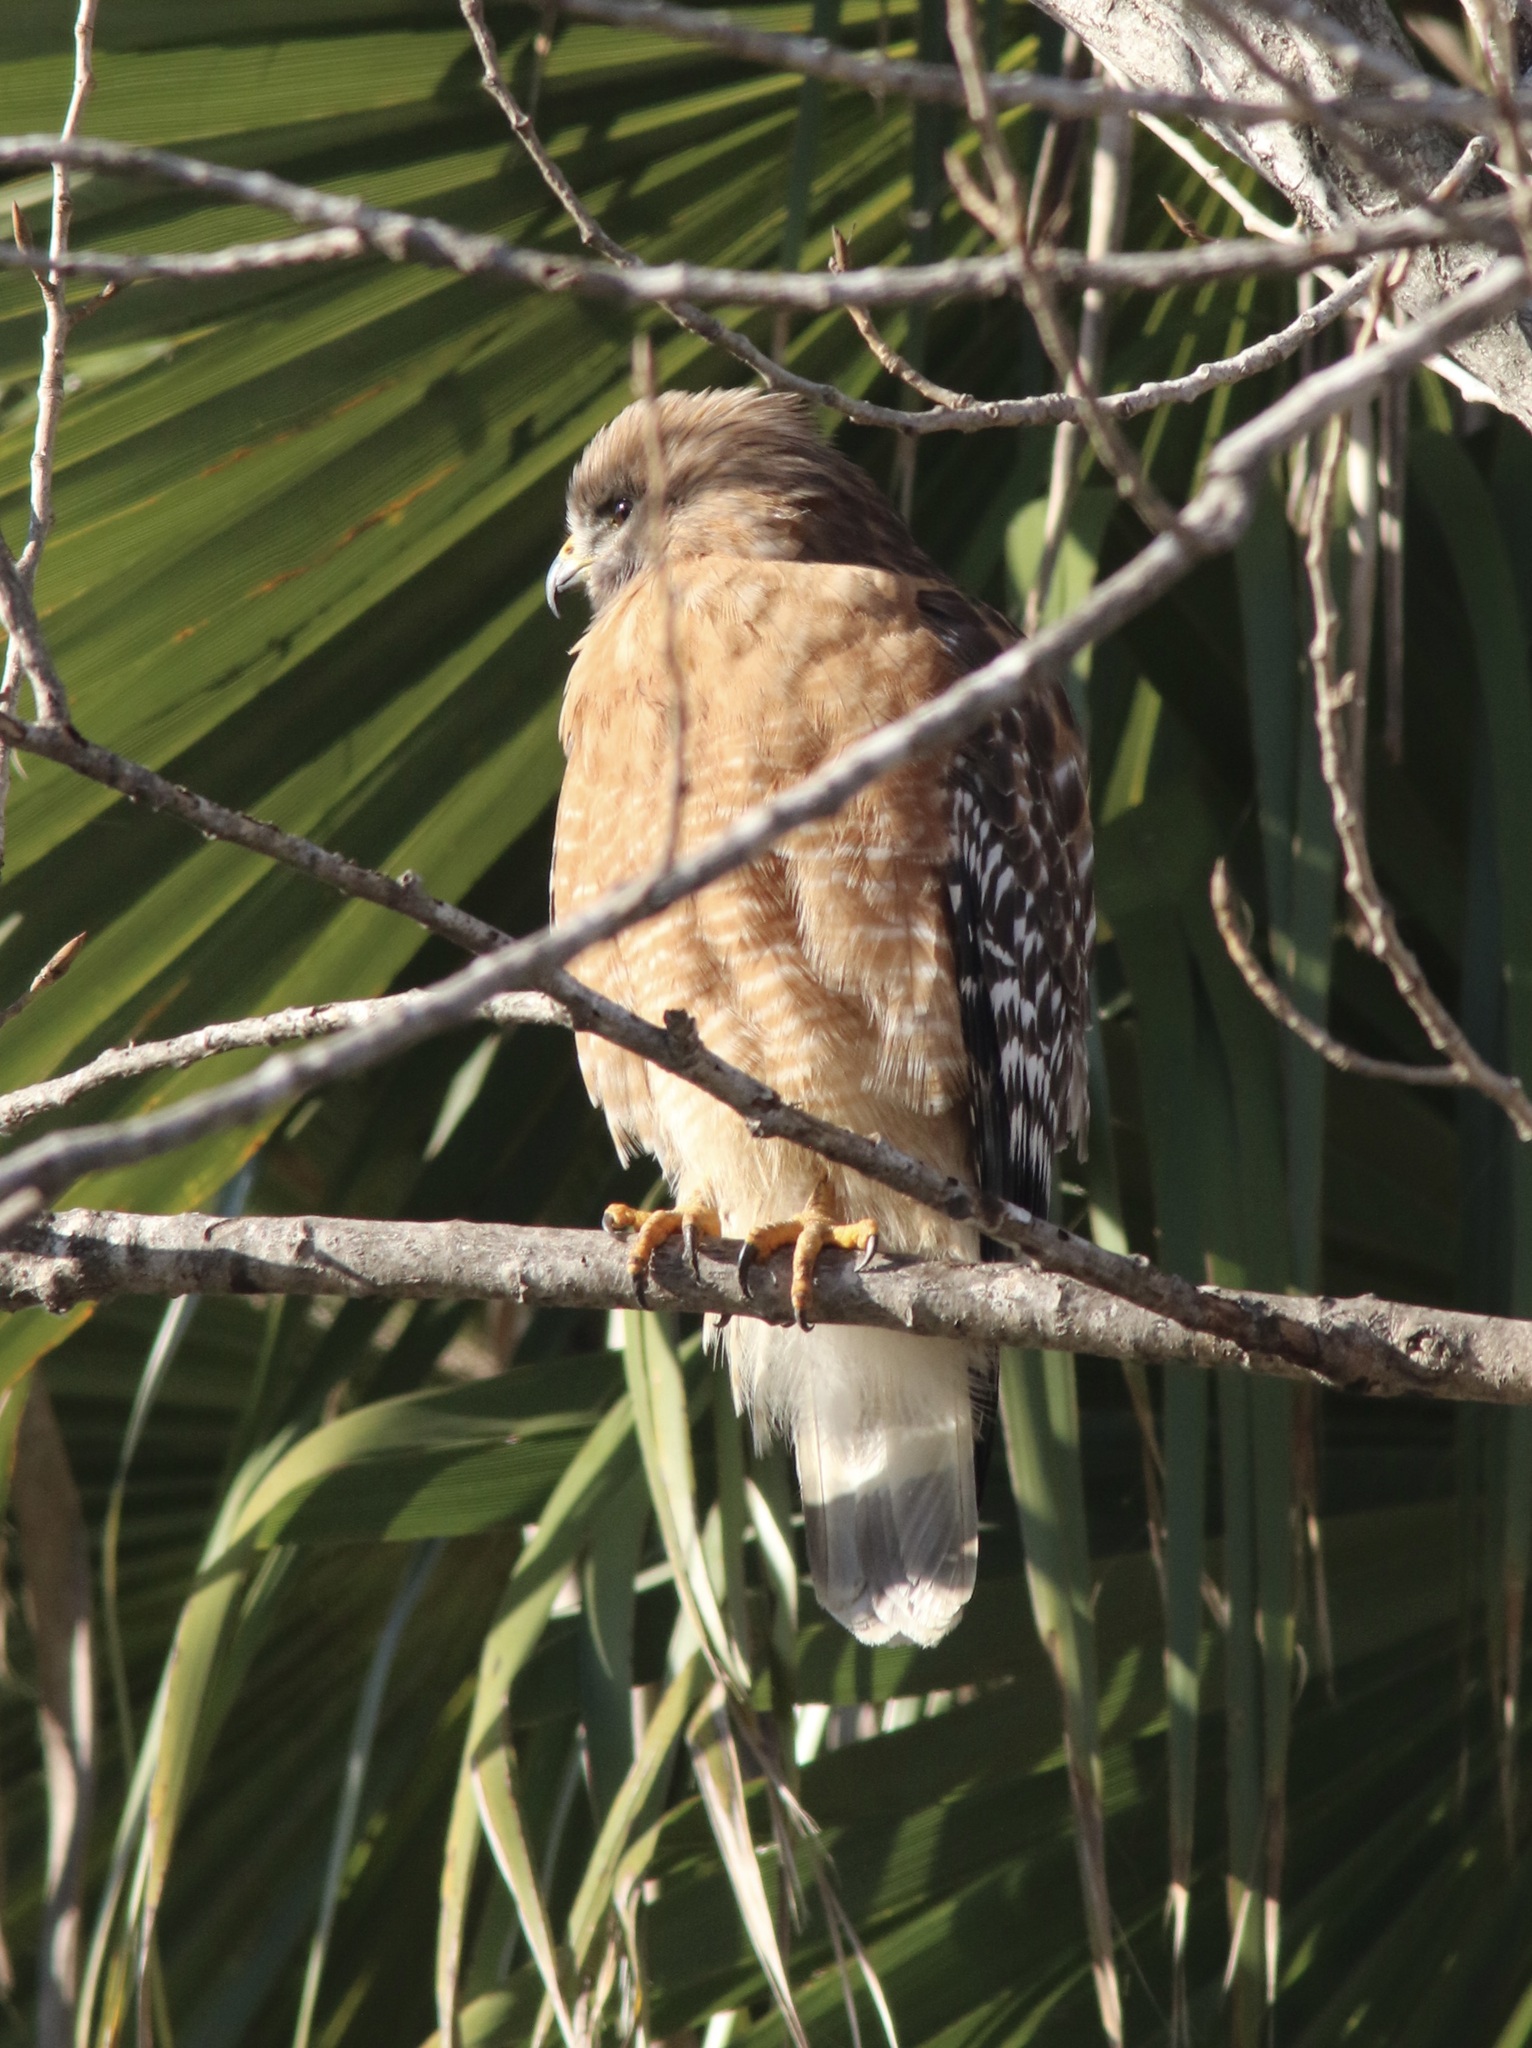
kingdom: Animalia
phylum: Chordata
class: Aves
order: Accipitriformes
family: Accipitridae
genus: Buteo
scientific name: Buteo lineatus
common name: Red-shouldered hawk
